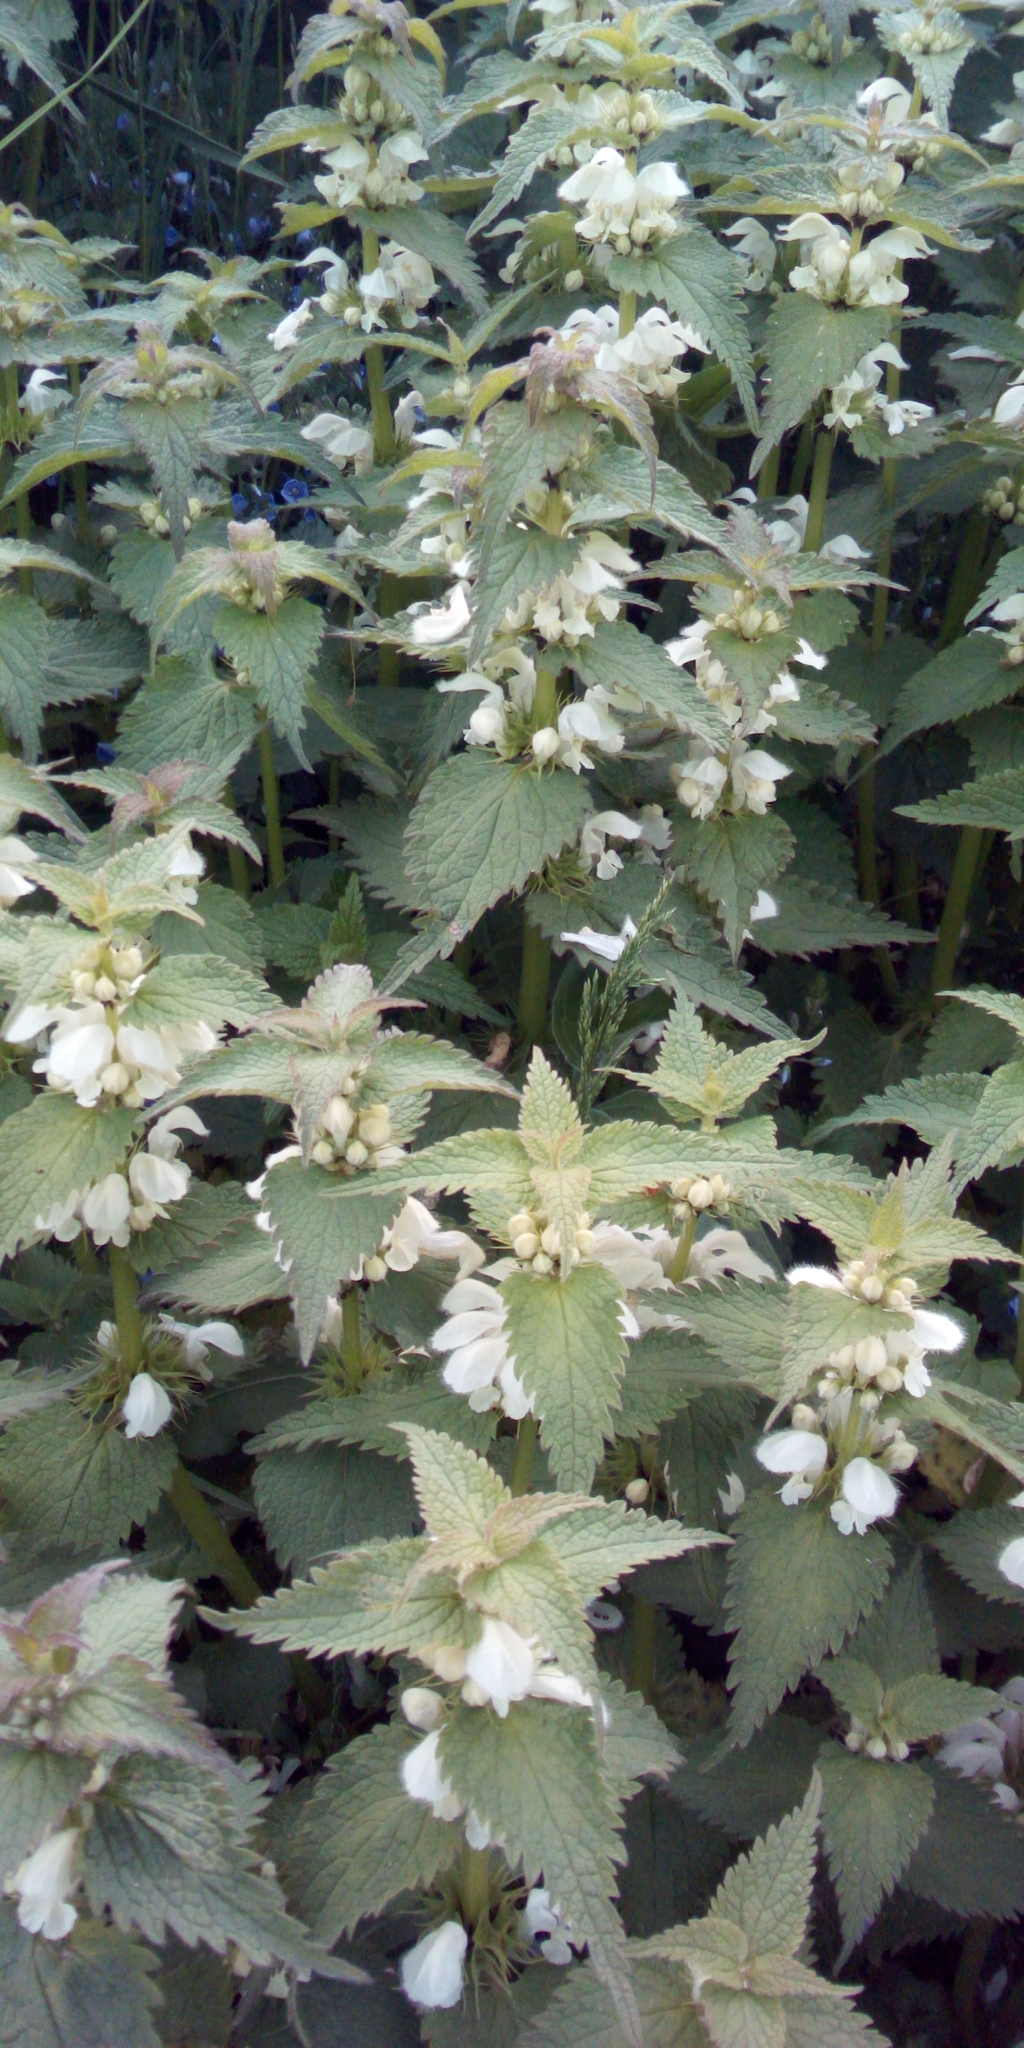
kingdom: Plantae
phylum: Tracheophyta
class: Magnoliopsida
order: Lamiales
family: Lamiaceae
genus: Lamium
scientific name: Lamium album
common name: White dead-nettle
